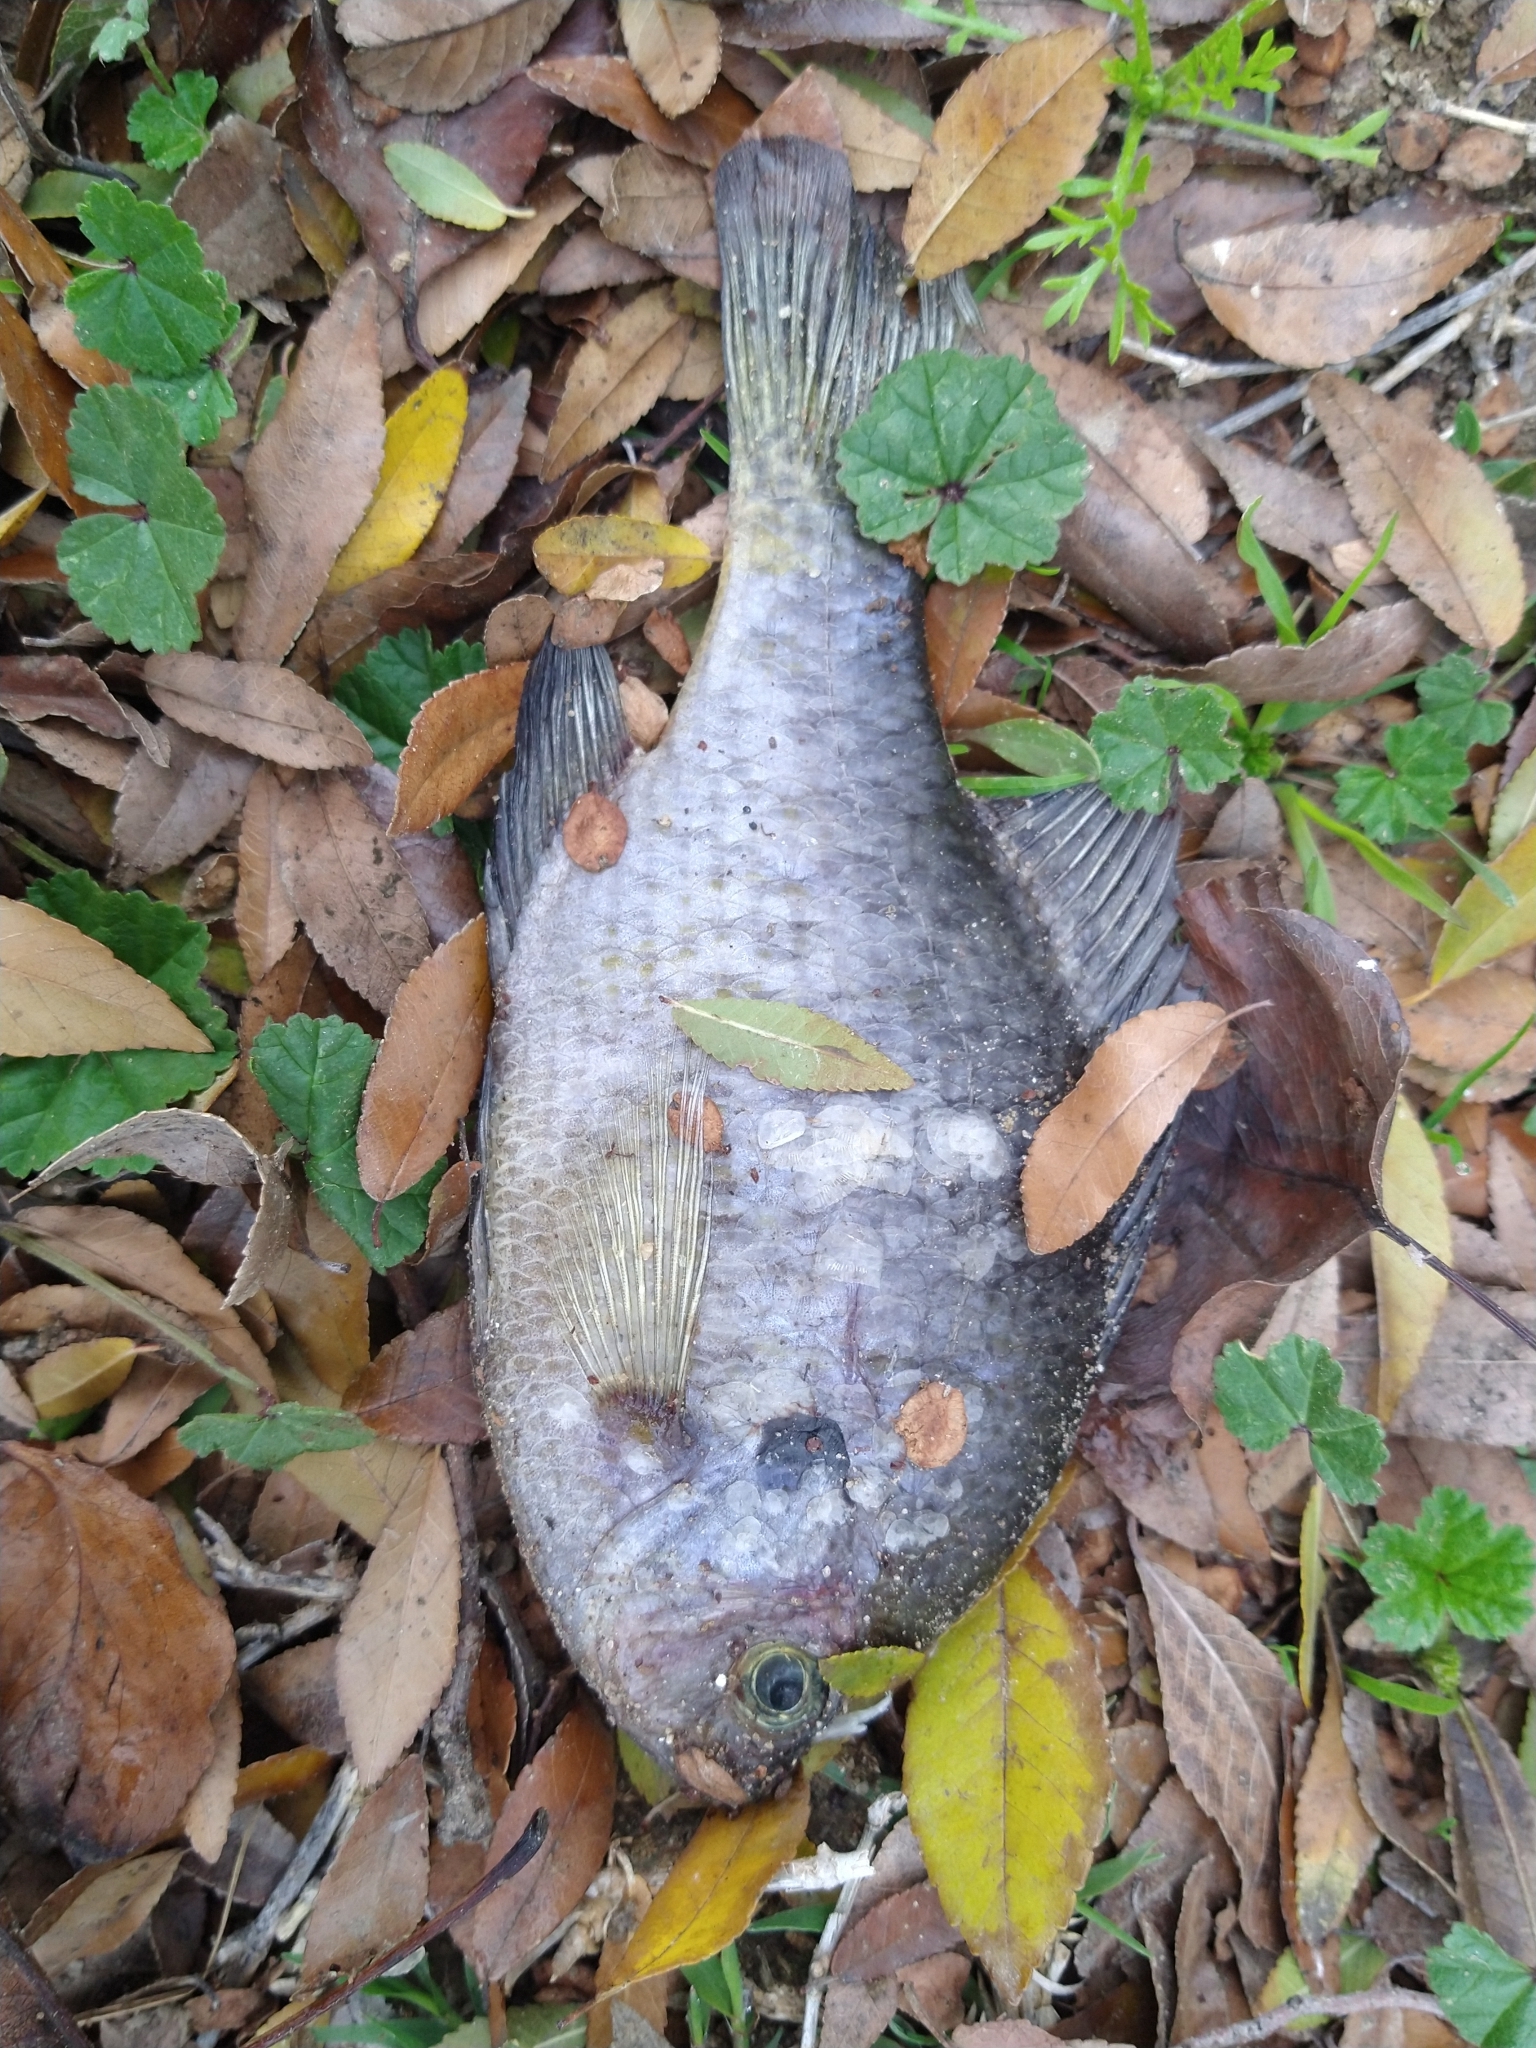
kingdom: Animalia
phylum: Chordata
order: Perciformes
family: Centrarchidae
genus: Lepomis
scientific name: Lepomis macrochirus
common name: Bluegill
